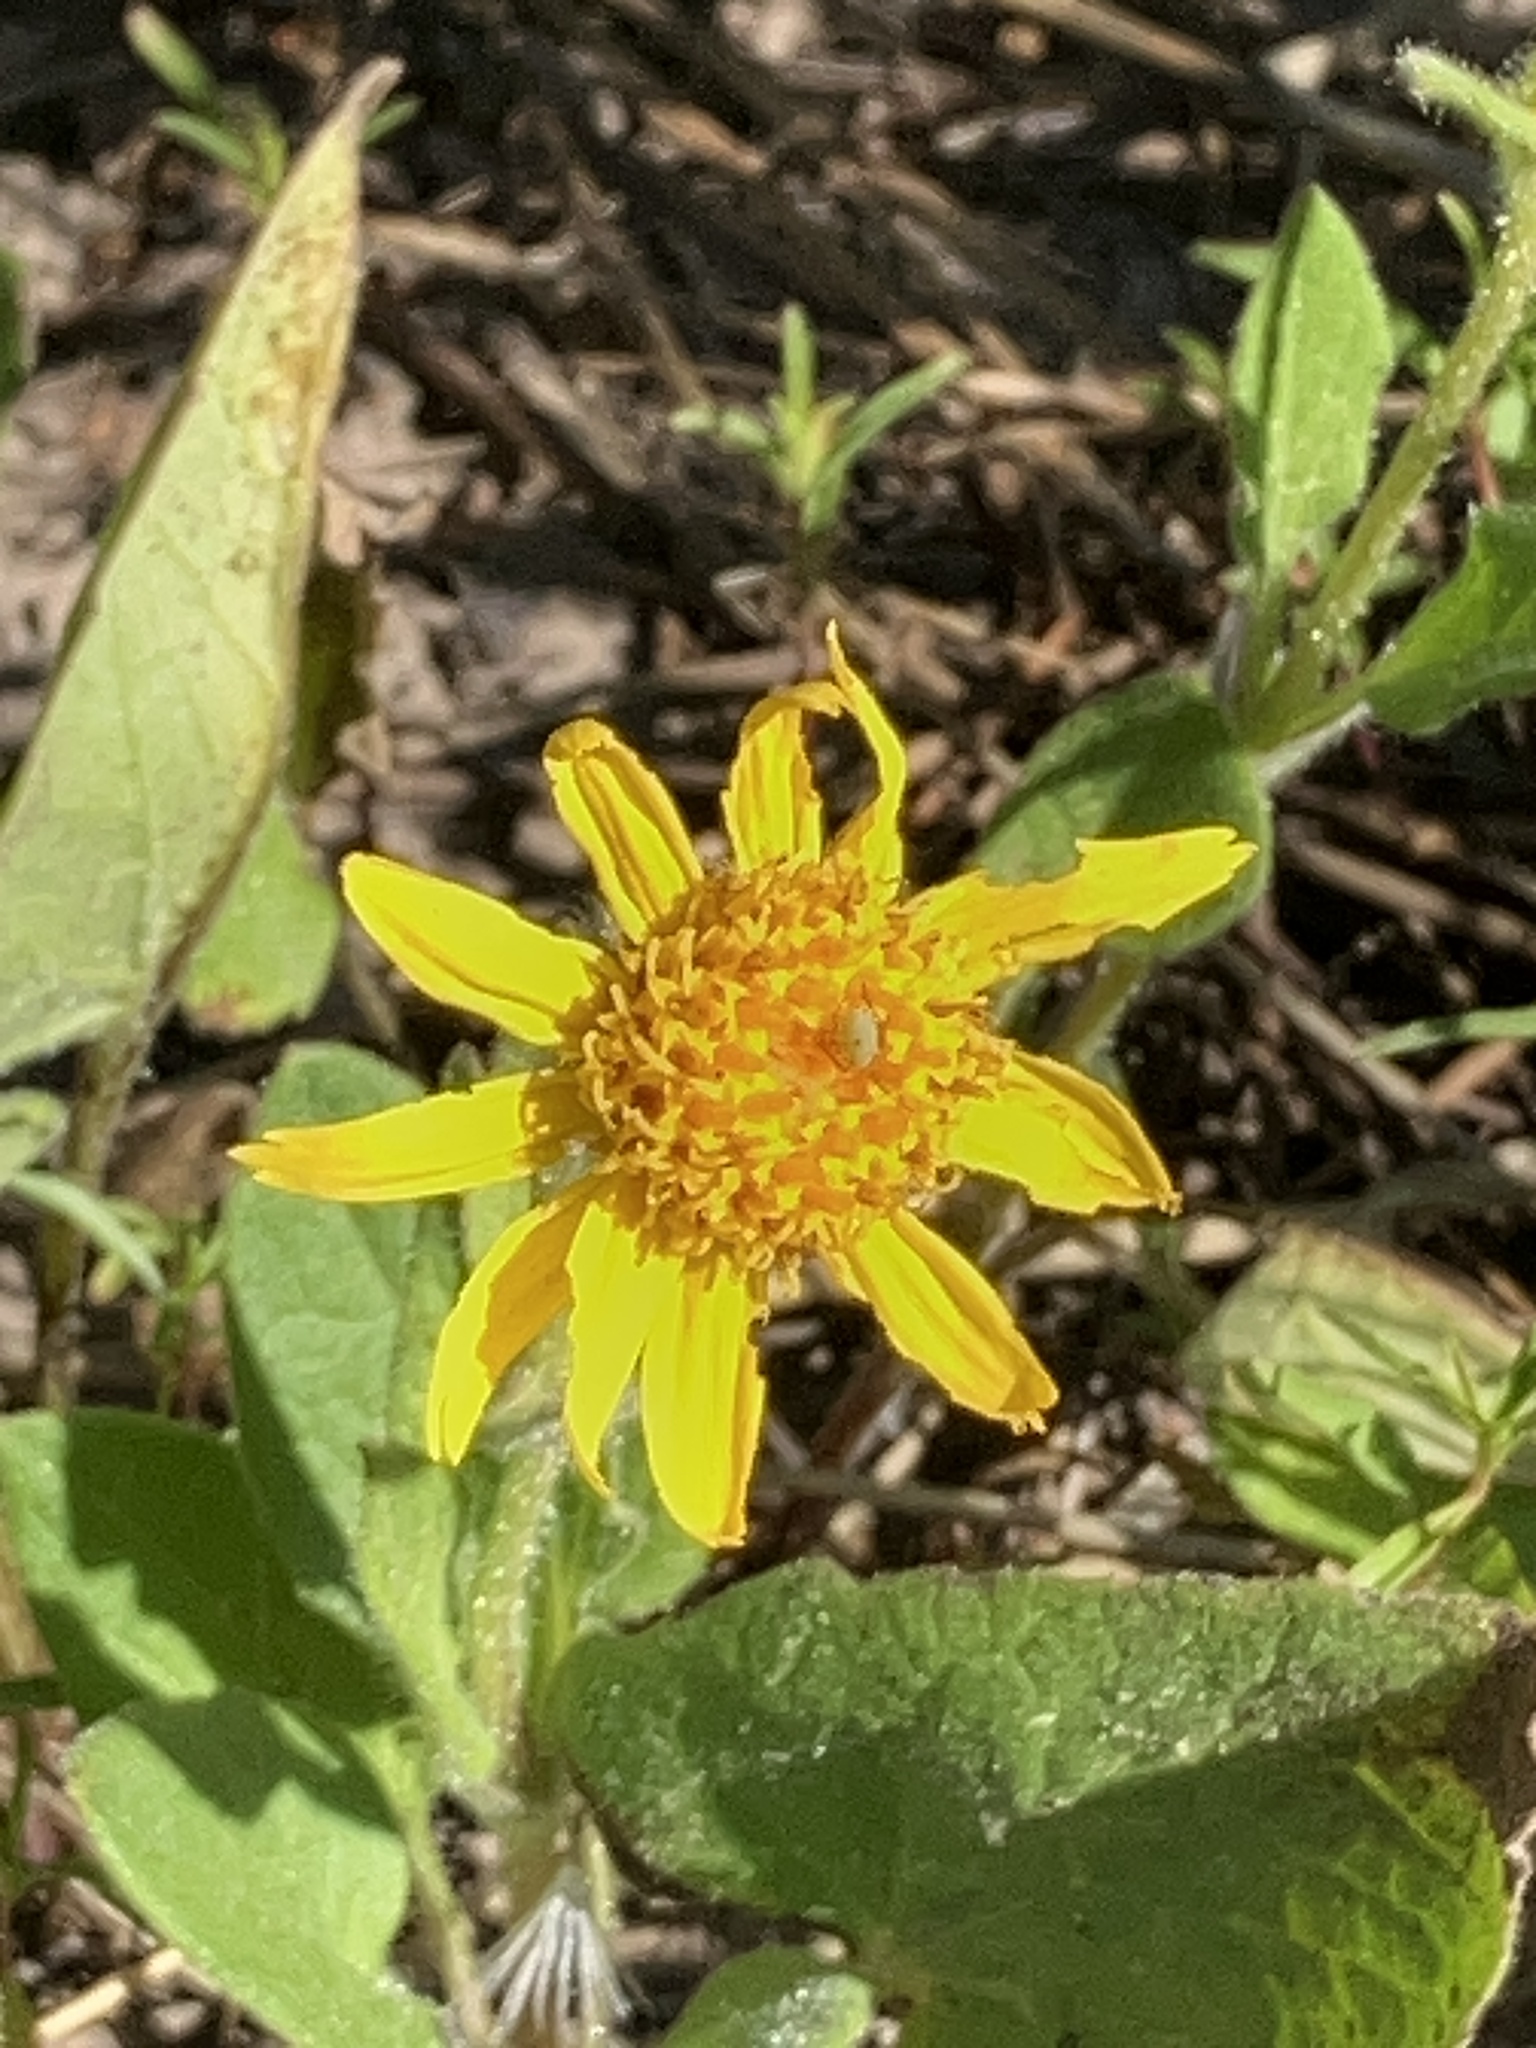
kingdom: Plantae
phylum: Tracheophyta
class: Magnoliopsida
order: Asterales
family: Asteraceae
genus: Arnica
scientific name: Arnica cordifolia
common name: Heart-leaf arnica
